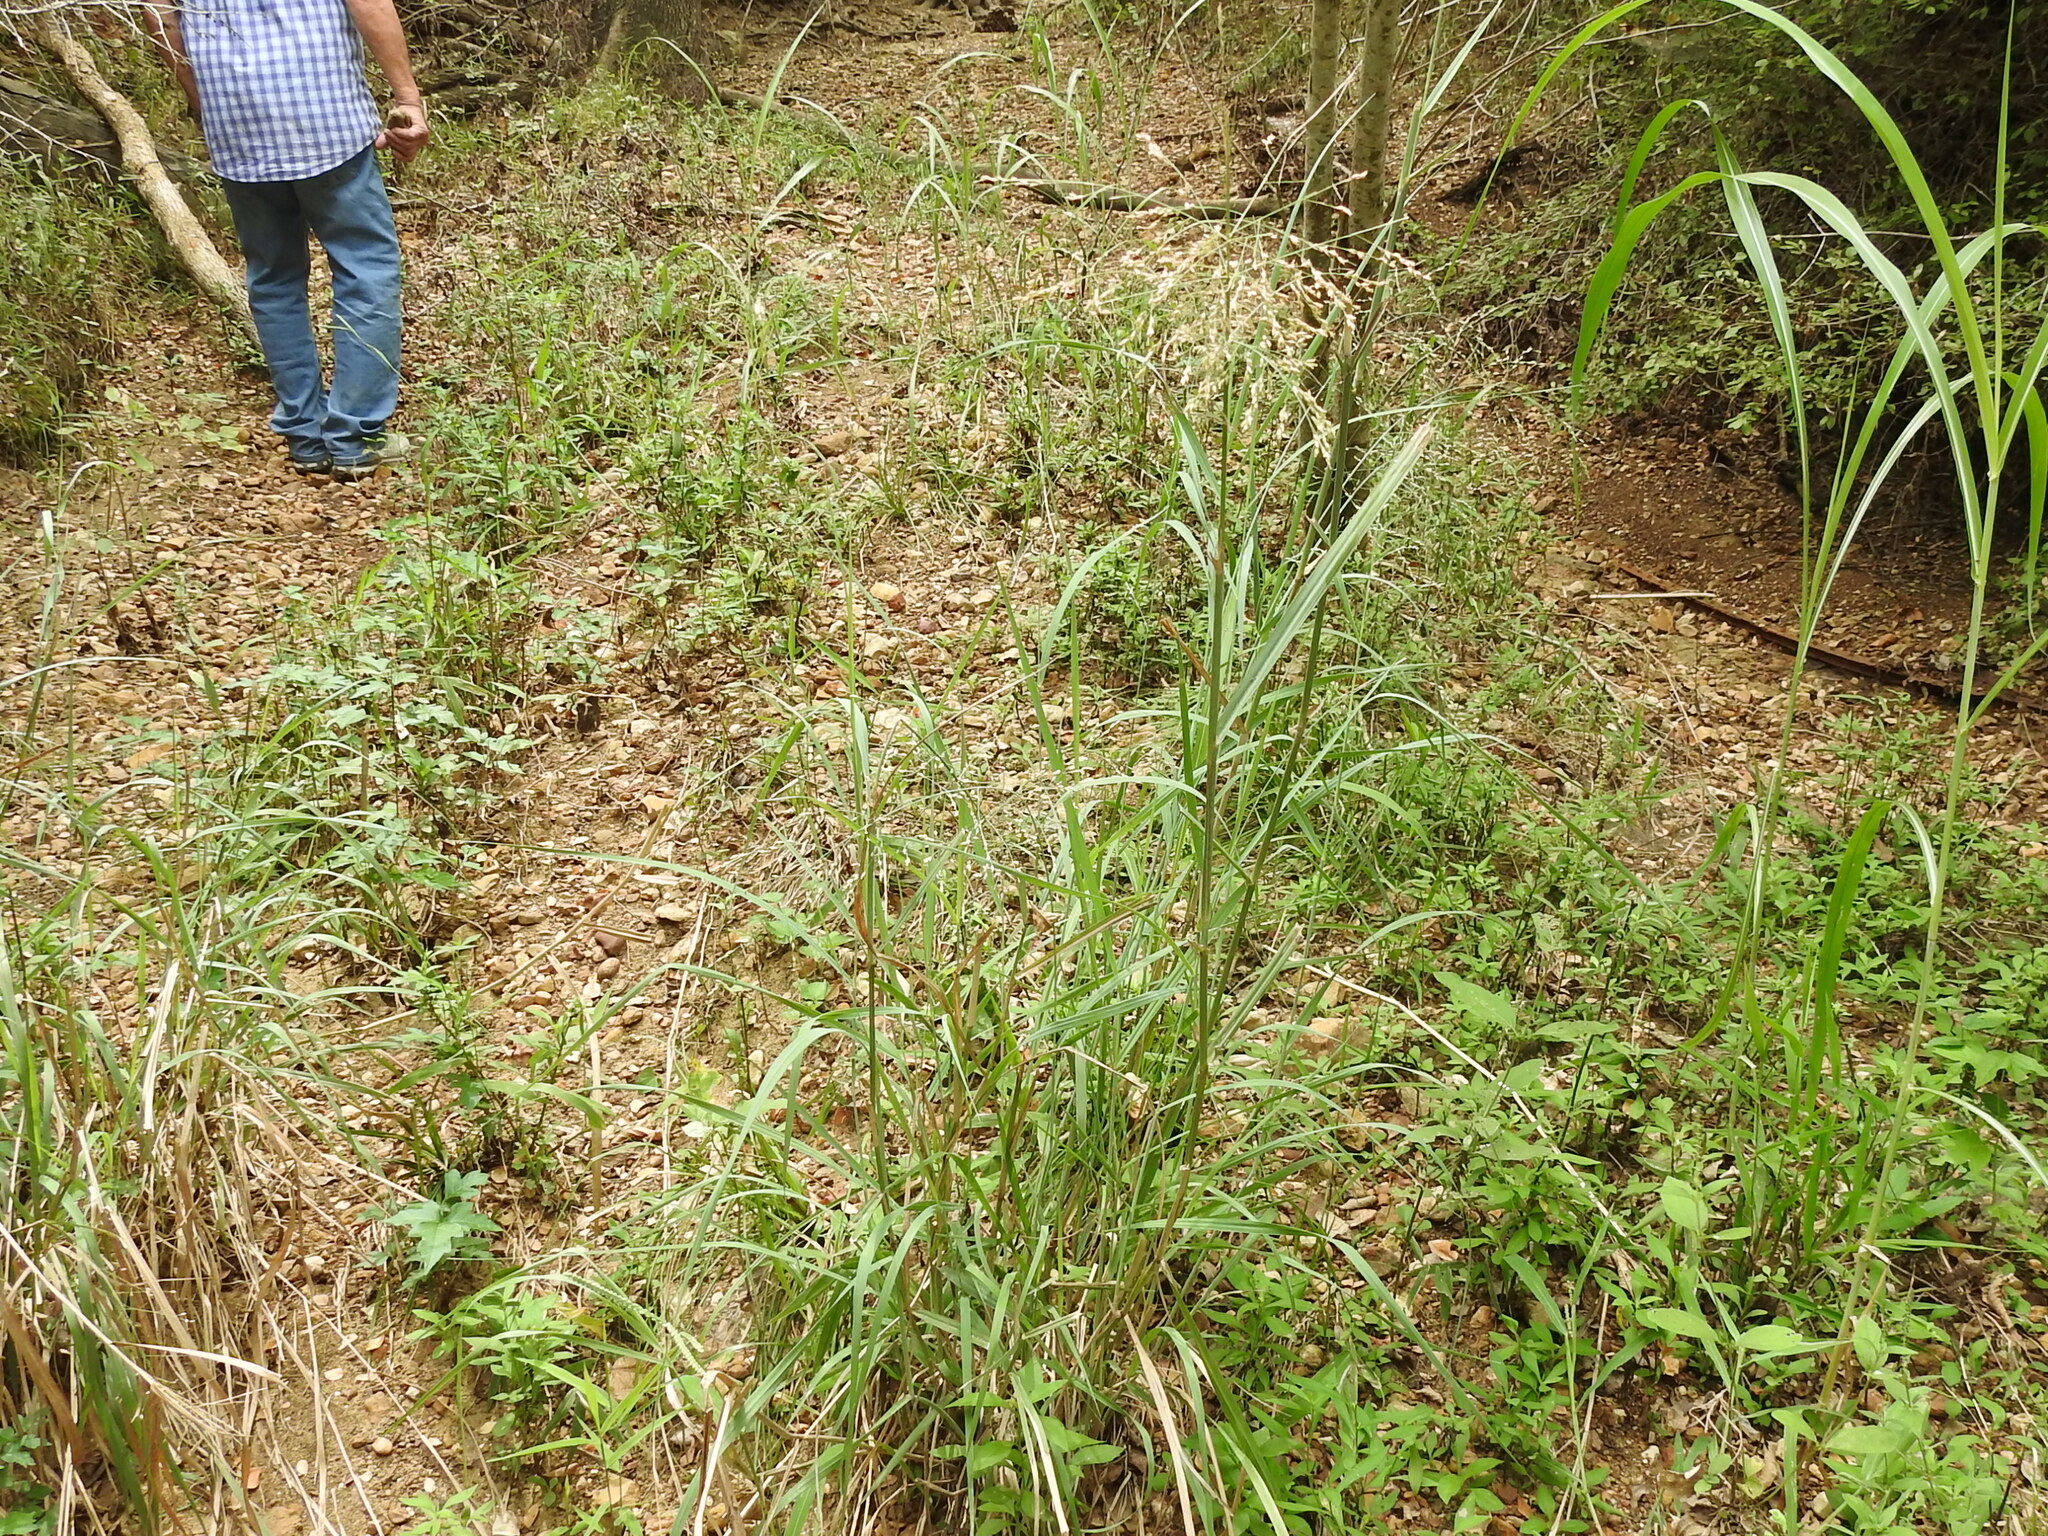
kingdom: Plantae
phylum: Tracheophyta
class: Liliopsida
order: Poales
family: Poaceae
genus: Panicum
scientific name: Panicum virgatum
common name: Switchgrass
